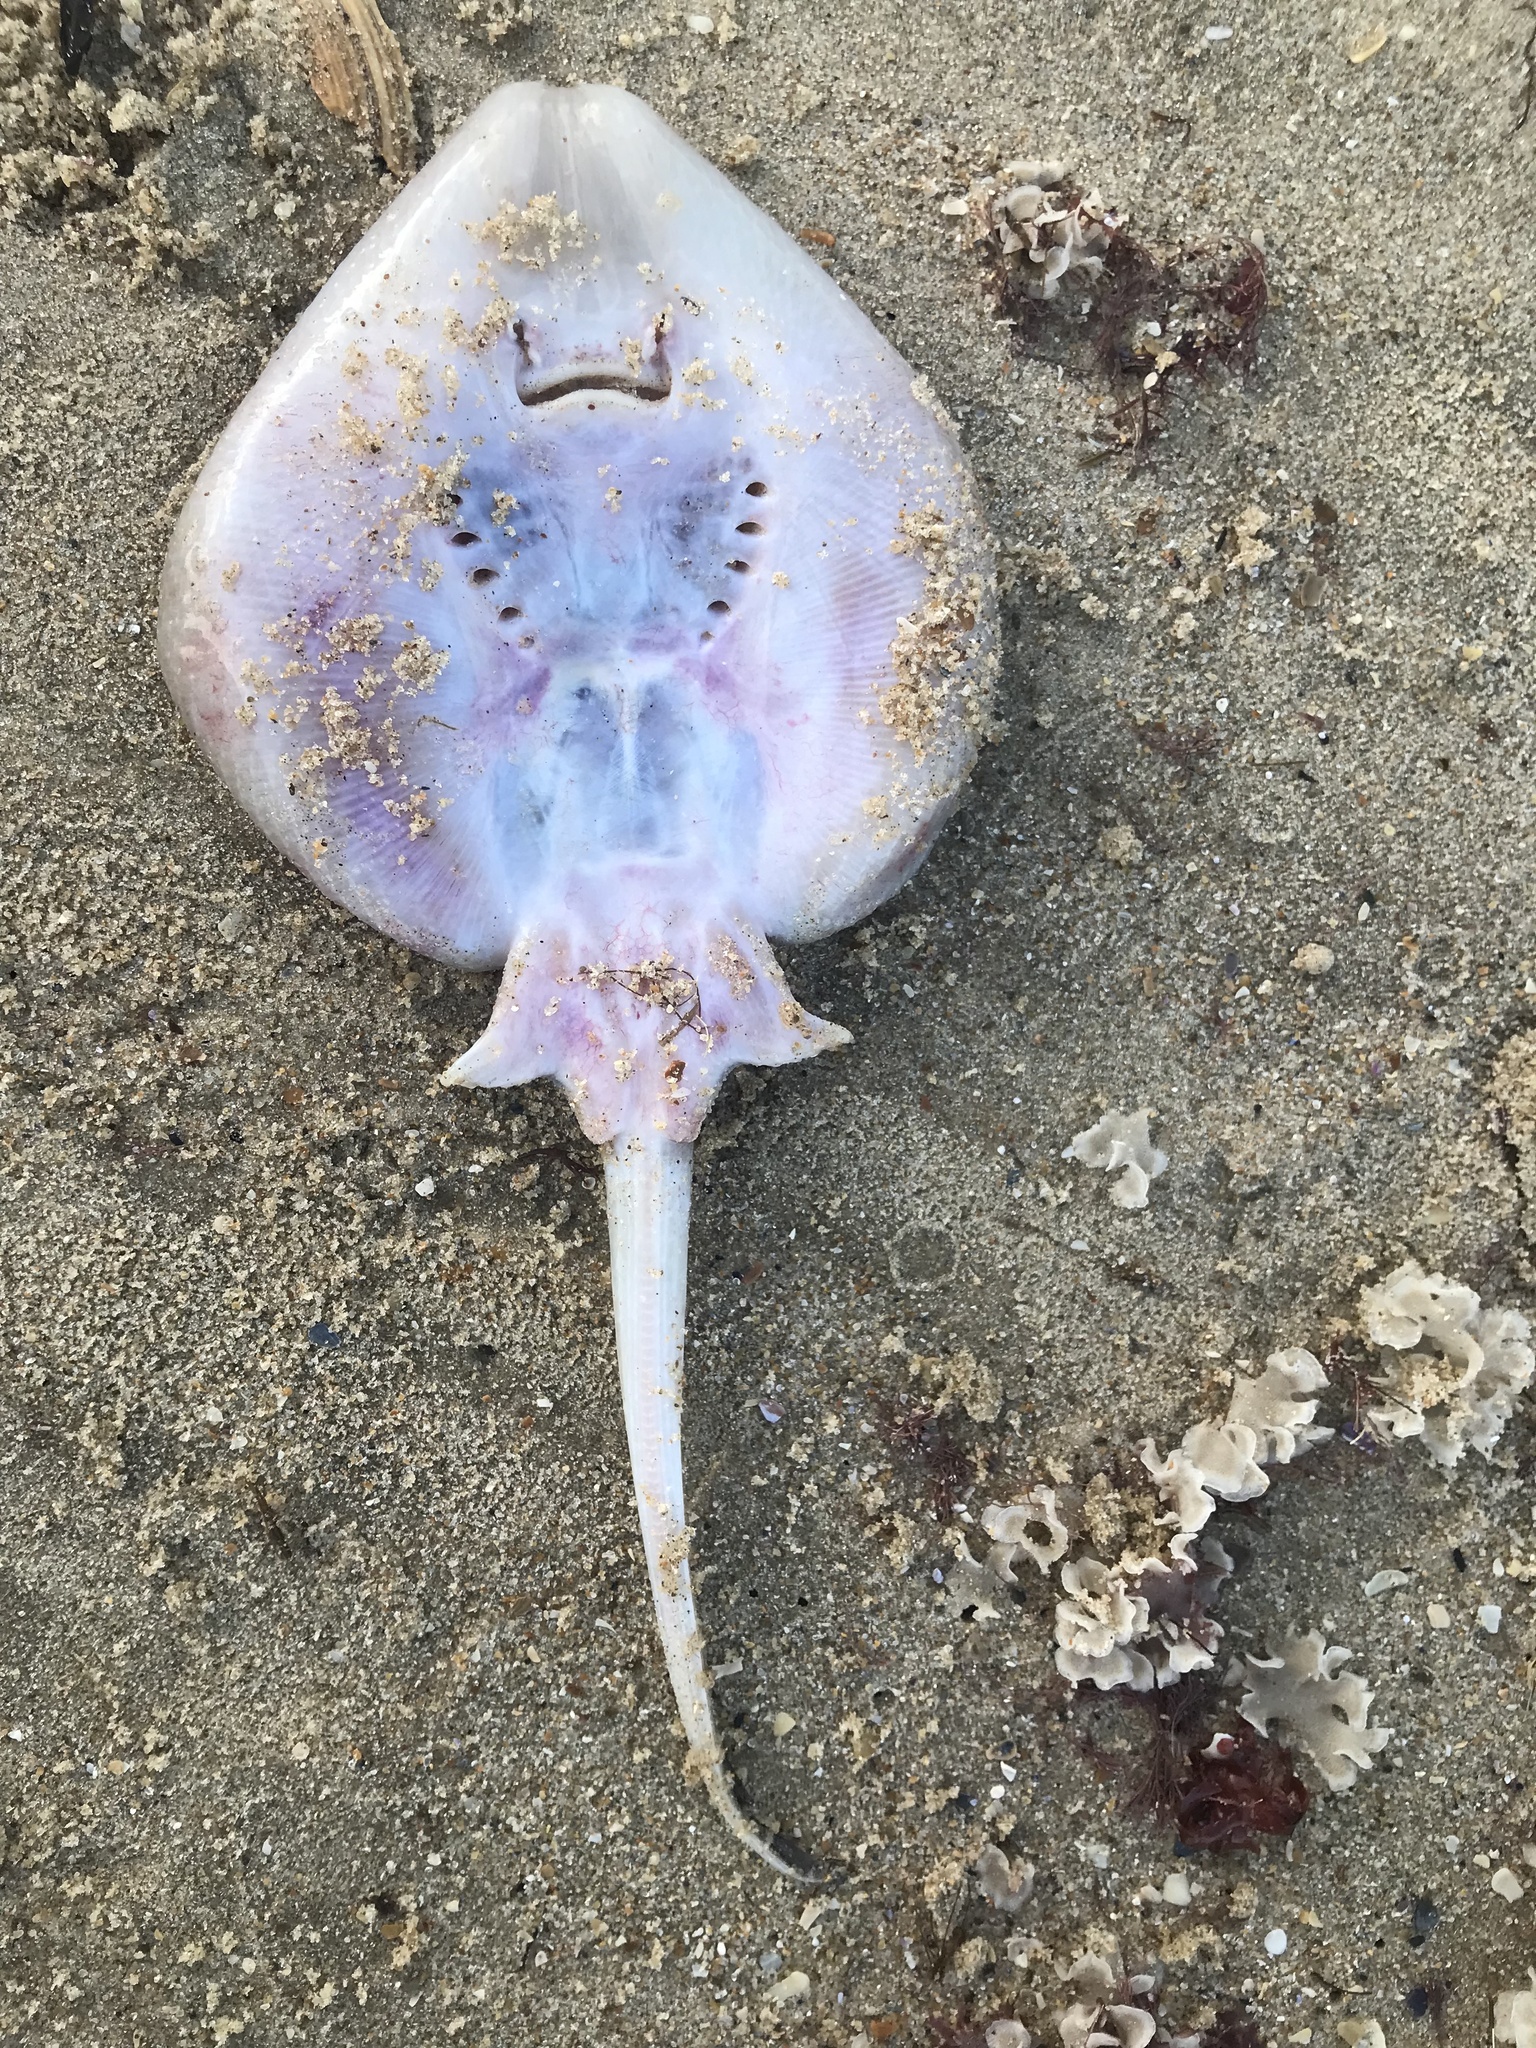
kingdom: Animalia
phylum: Chordata
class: Elasmobranchii
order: Rajiformes
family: Arhynchobatidae
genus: Sympterygia
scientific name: Sympterygia acuta
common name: Bignose fanskate
